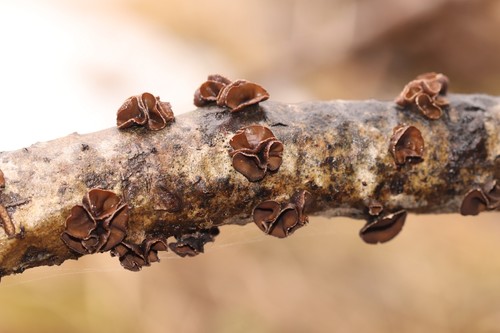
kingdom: Fungi
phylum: Ascomycota
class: Leotiomycetes
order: Helotiales
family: Sclerotiniaceae
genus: Sclerencoelia
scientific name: Sclerencoelia fascicularis
